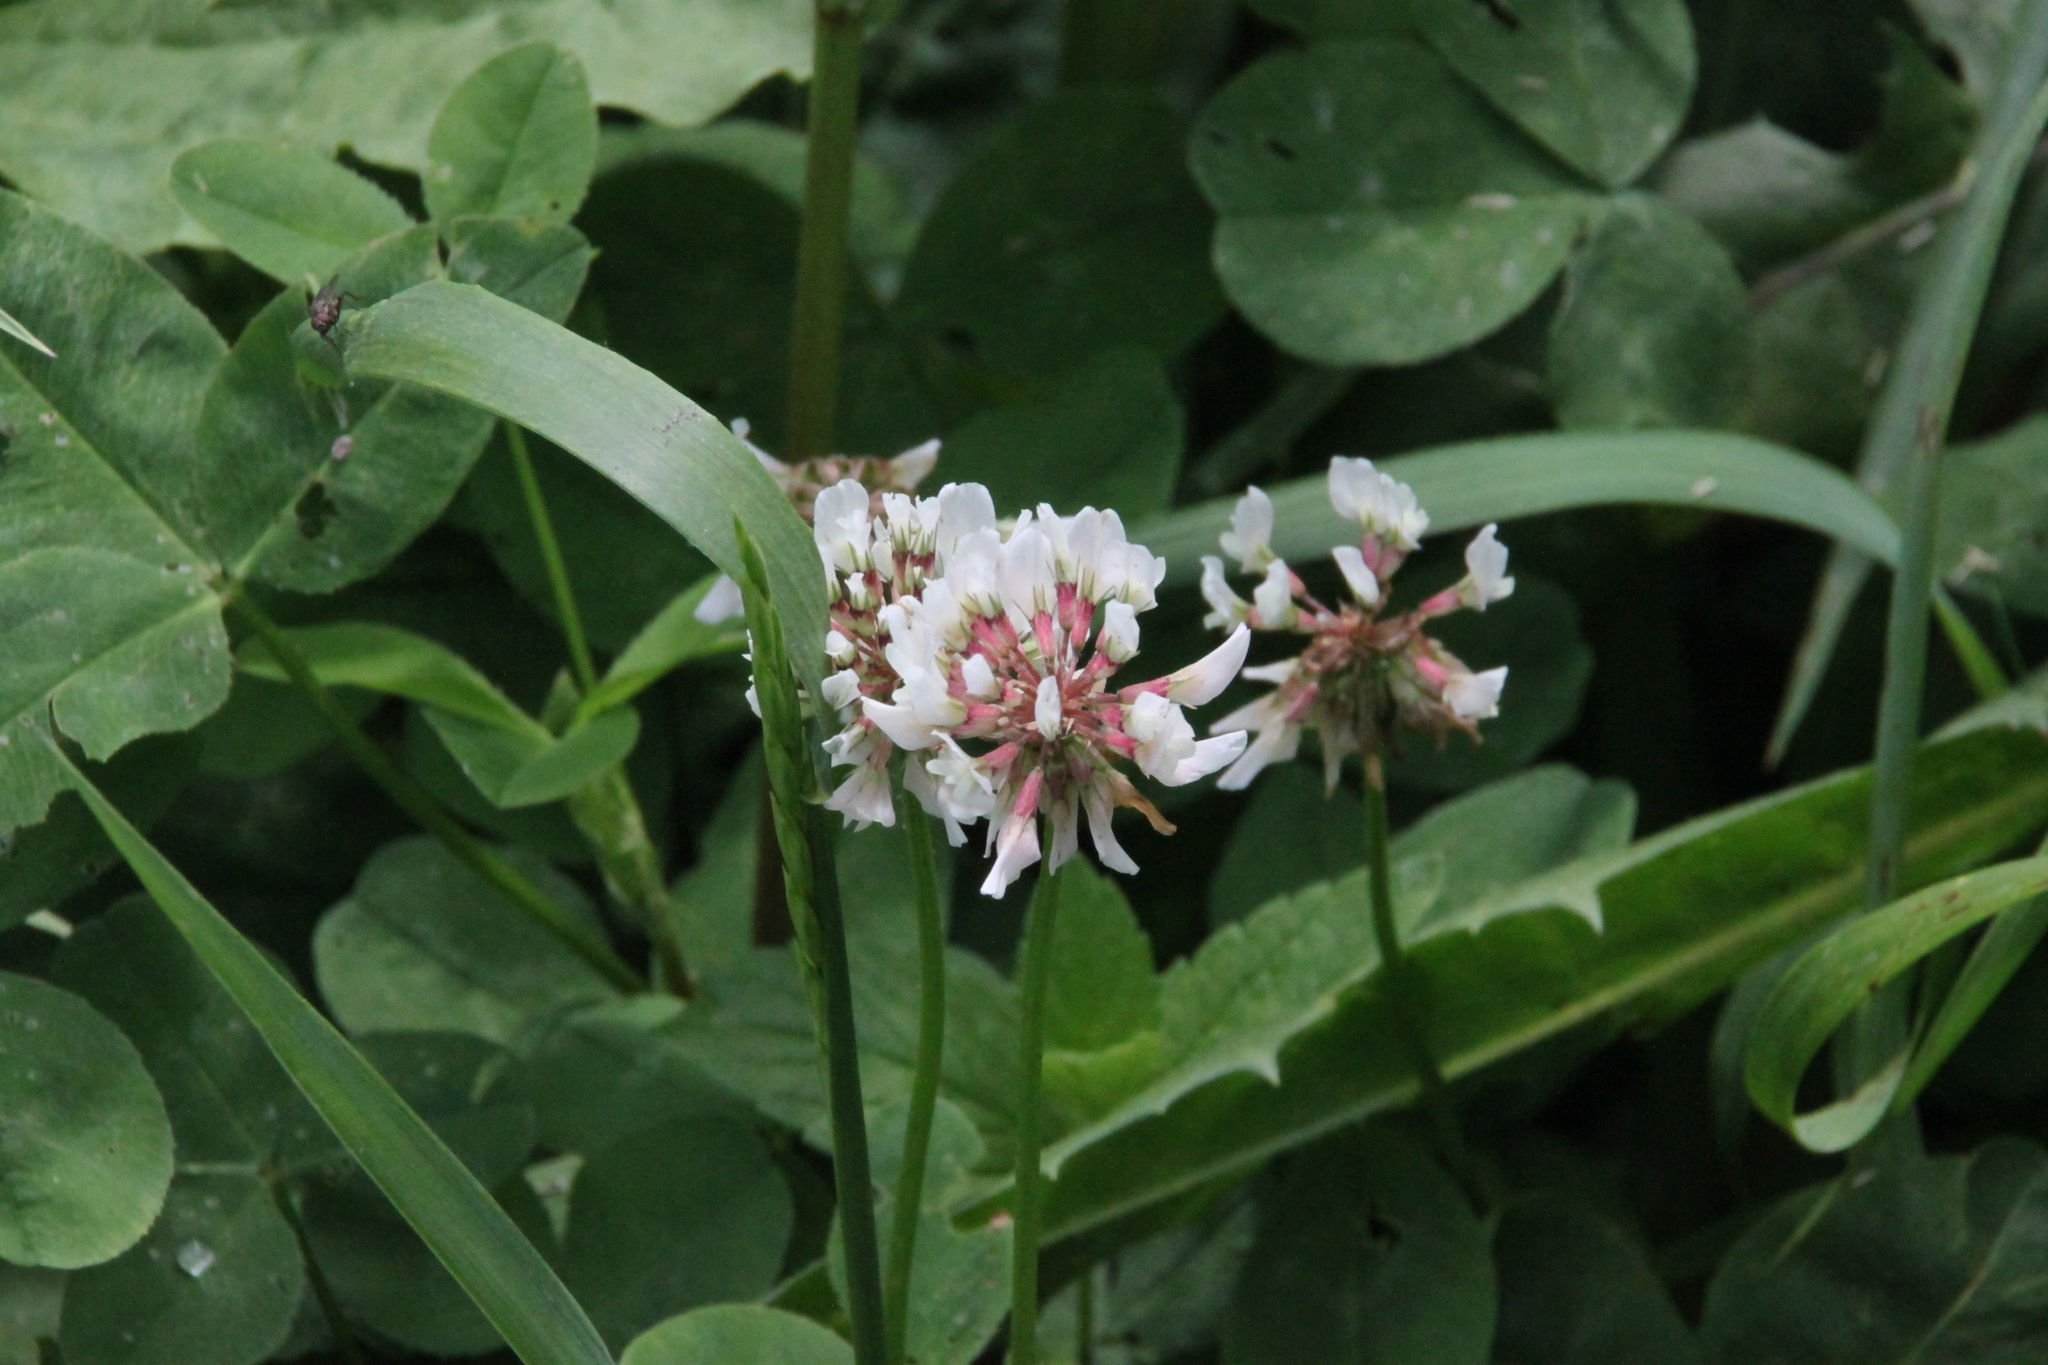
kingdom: Plantae
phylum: Tracheophyta
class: Magnoliopsida
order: Fabales
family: Fabaceae
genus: Trifolium
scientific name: Trifolium repens
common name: White clover
